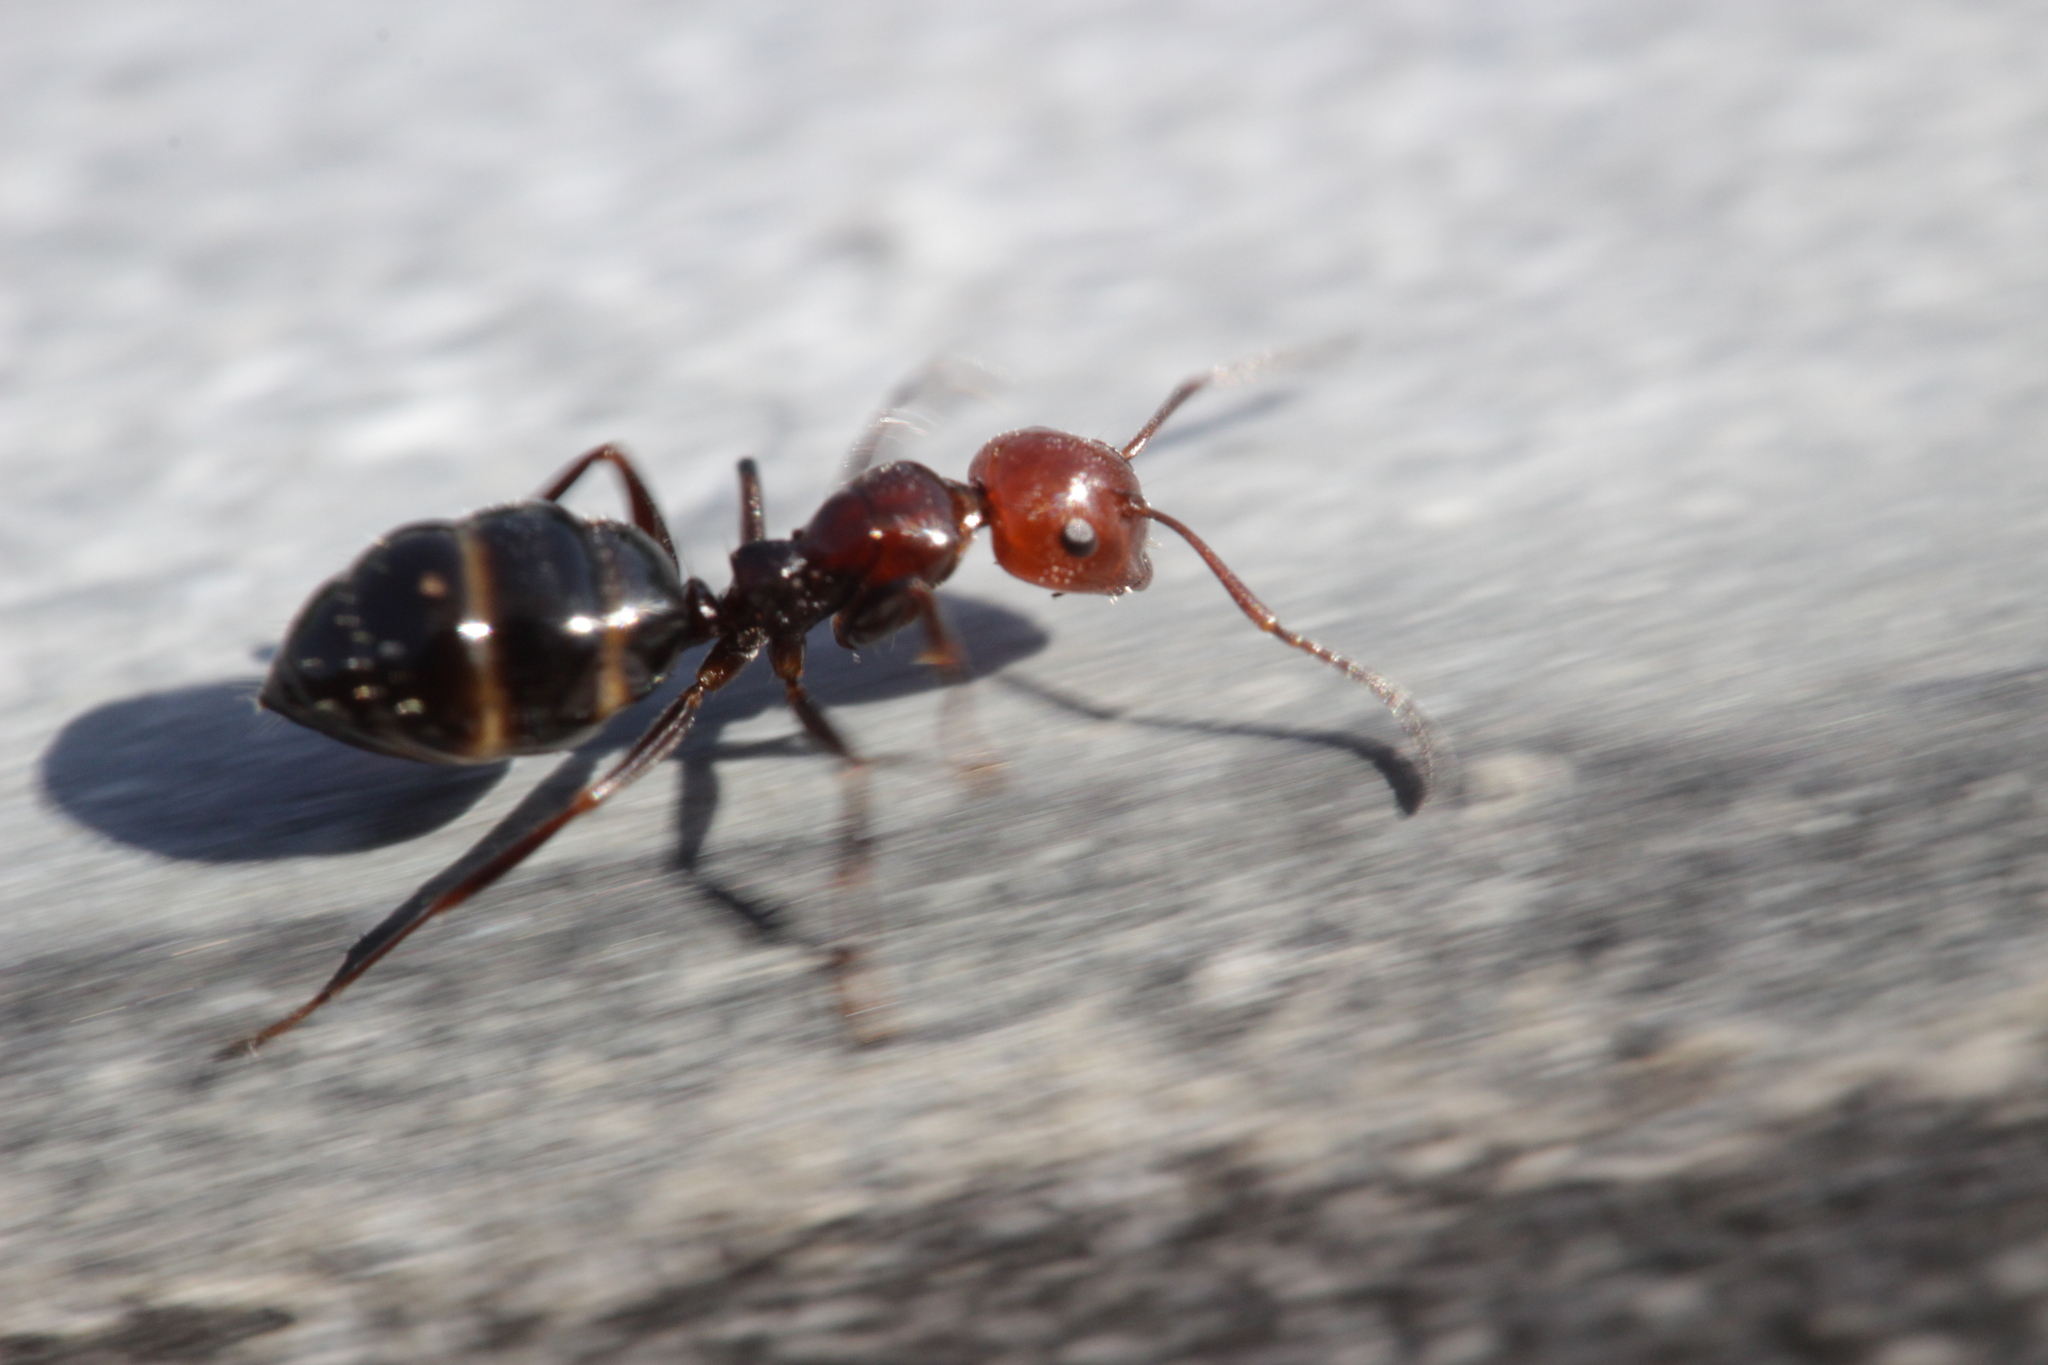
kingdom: Animalia
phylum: Arthropoda
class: Insecta
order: Hymenoptera
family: Formicidae
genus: Camponotus
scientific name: Camponotus lateralis
